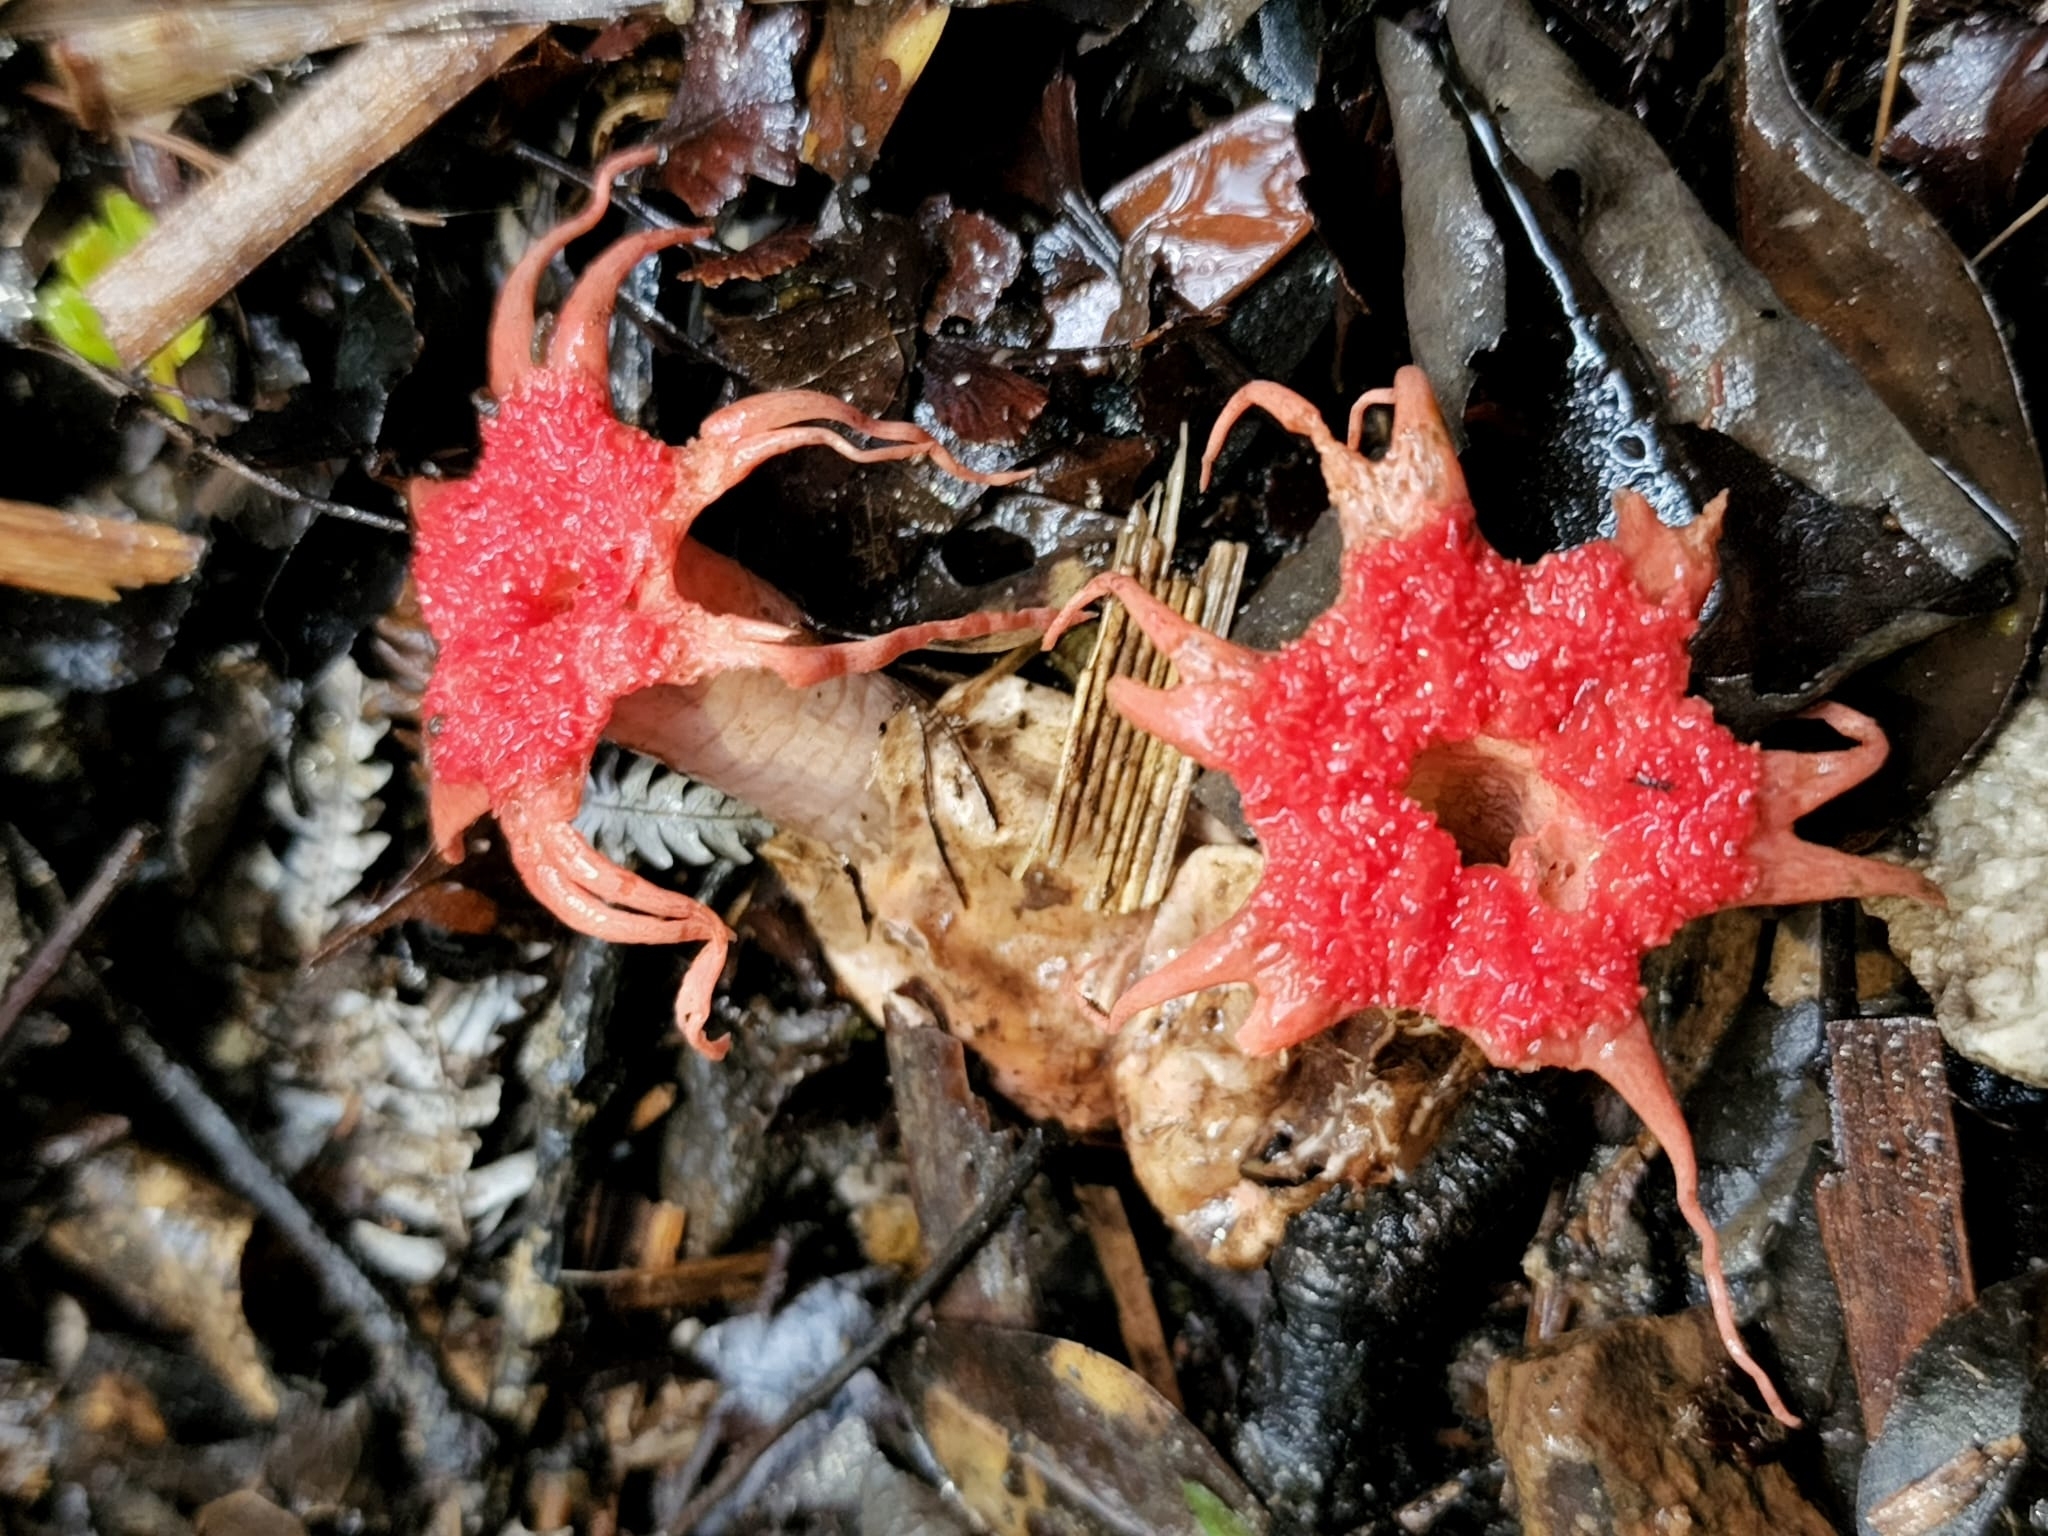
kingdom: Fungi
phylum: Basidiomycota
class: Agaricomycetes
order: Phallales
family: Phallaceae
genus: Aseroe
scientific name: Aseroe rubra
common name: Starfish fungus
